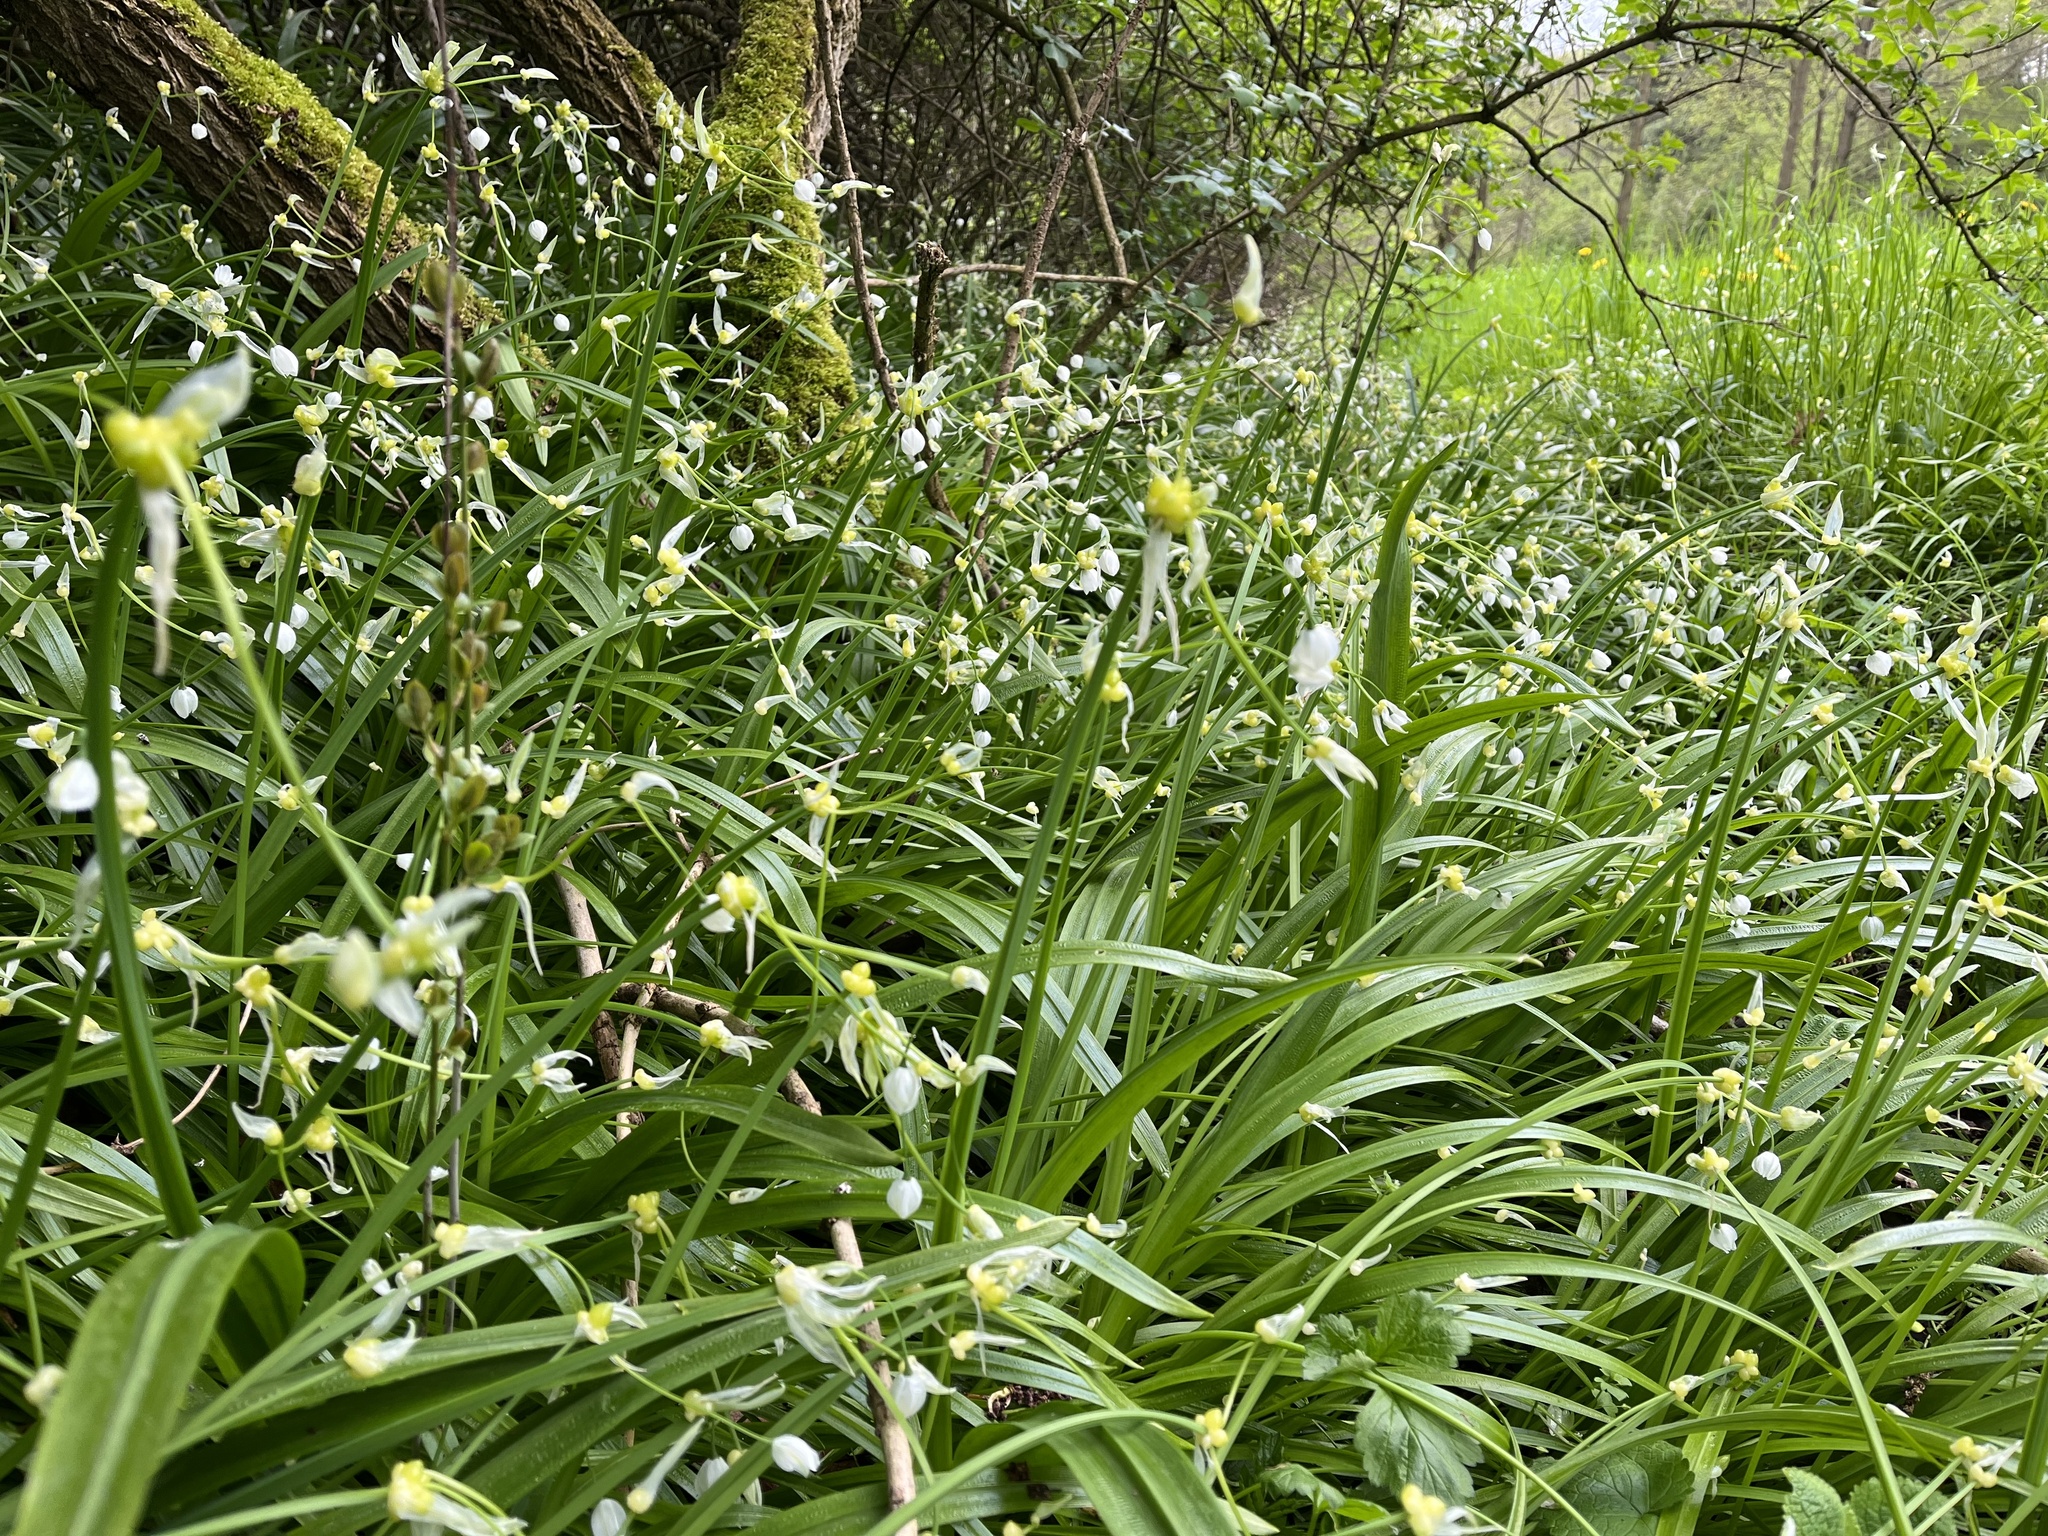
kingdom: Plantae
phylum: Tracheophyta
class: Liliopsida
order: Asparagales
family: Amaryllidaceae
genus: Allium
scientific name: Allium paradoxum
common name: Few-flowered garlic
